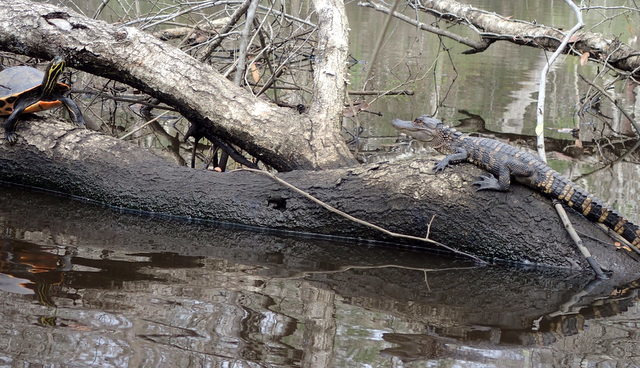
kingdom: Animalia
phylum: Chordata
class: Crocodylia
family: Alligatoridae
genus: Alligator
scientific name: Alligator mississippiensis
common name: American alligator
